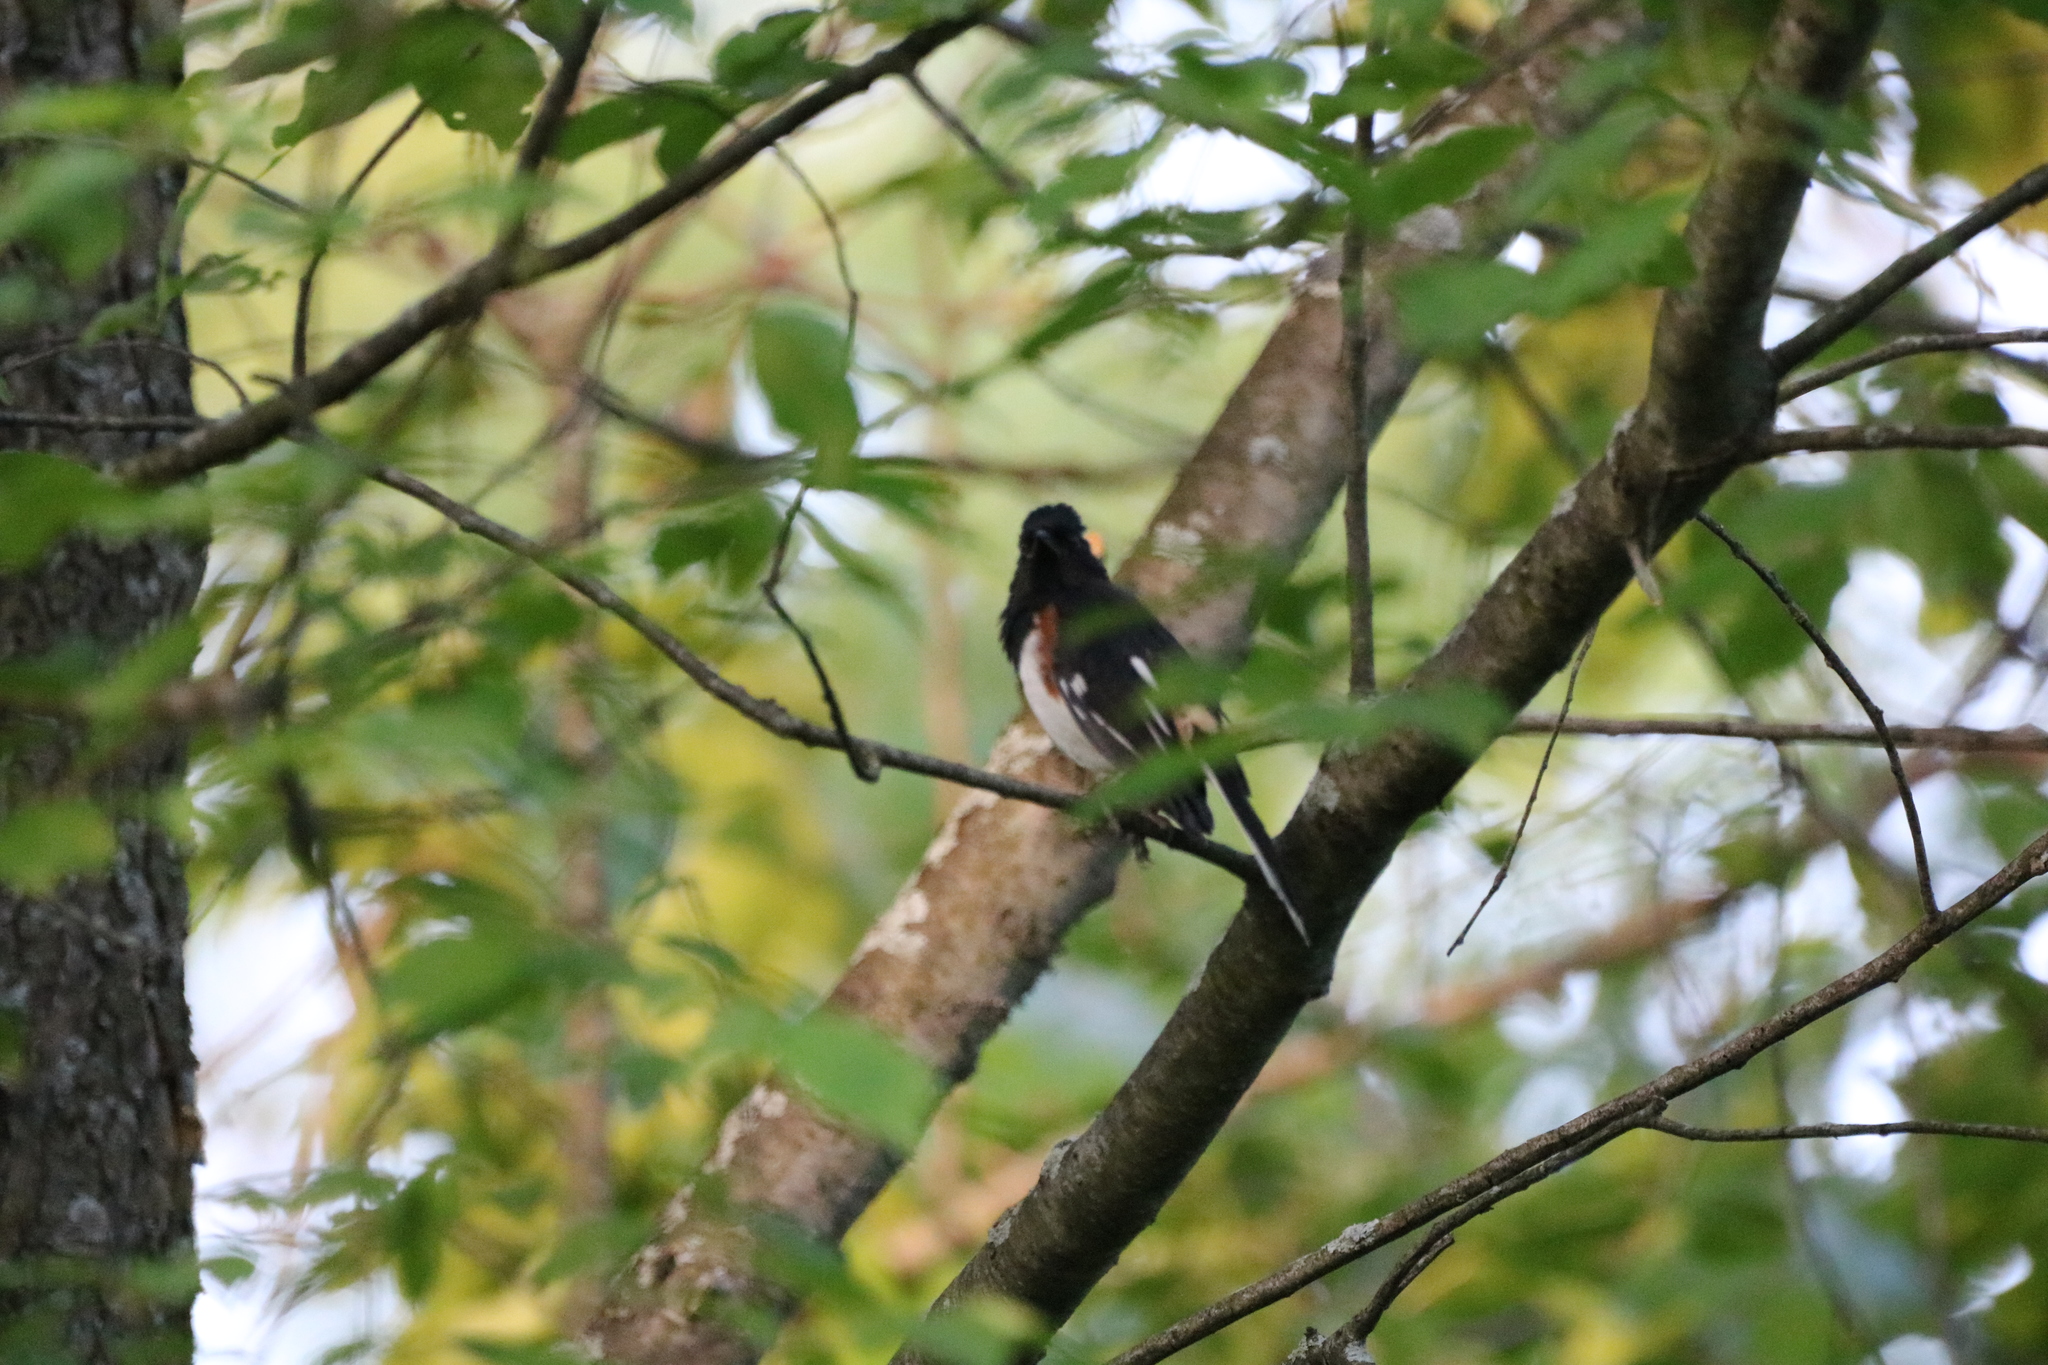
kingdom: Animalia
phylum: Chordata
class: Aves
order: Passeriformes
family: Passerellidae
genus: Pipilo
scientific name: Pipilo erythrophthalmus
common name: Eastern towhee
